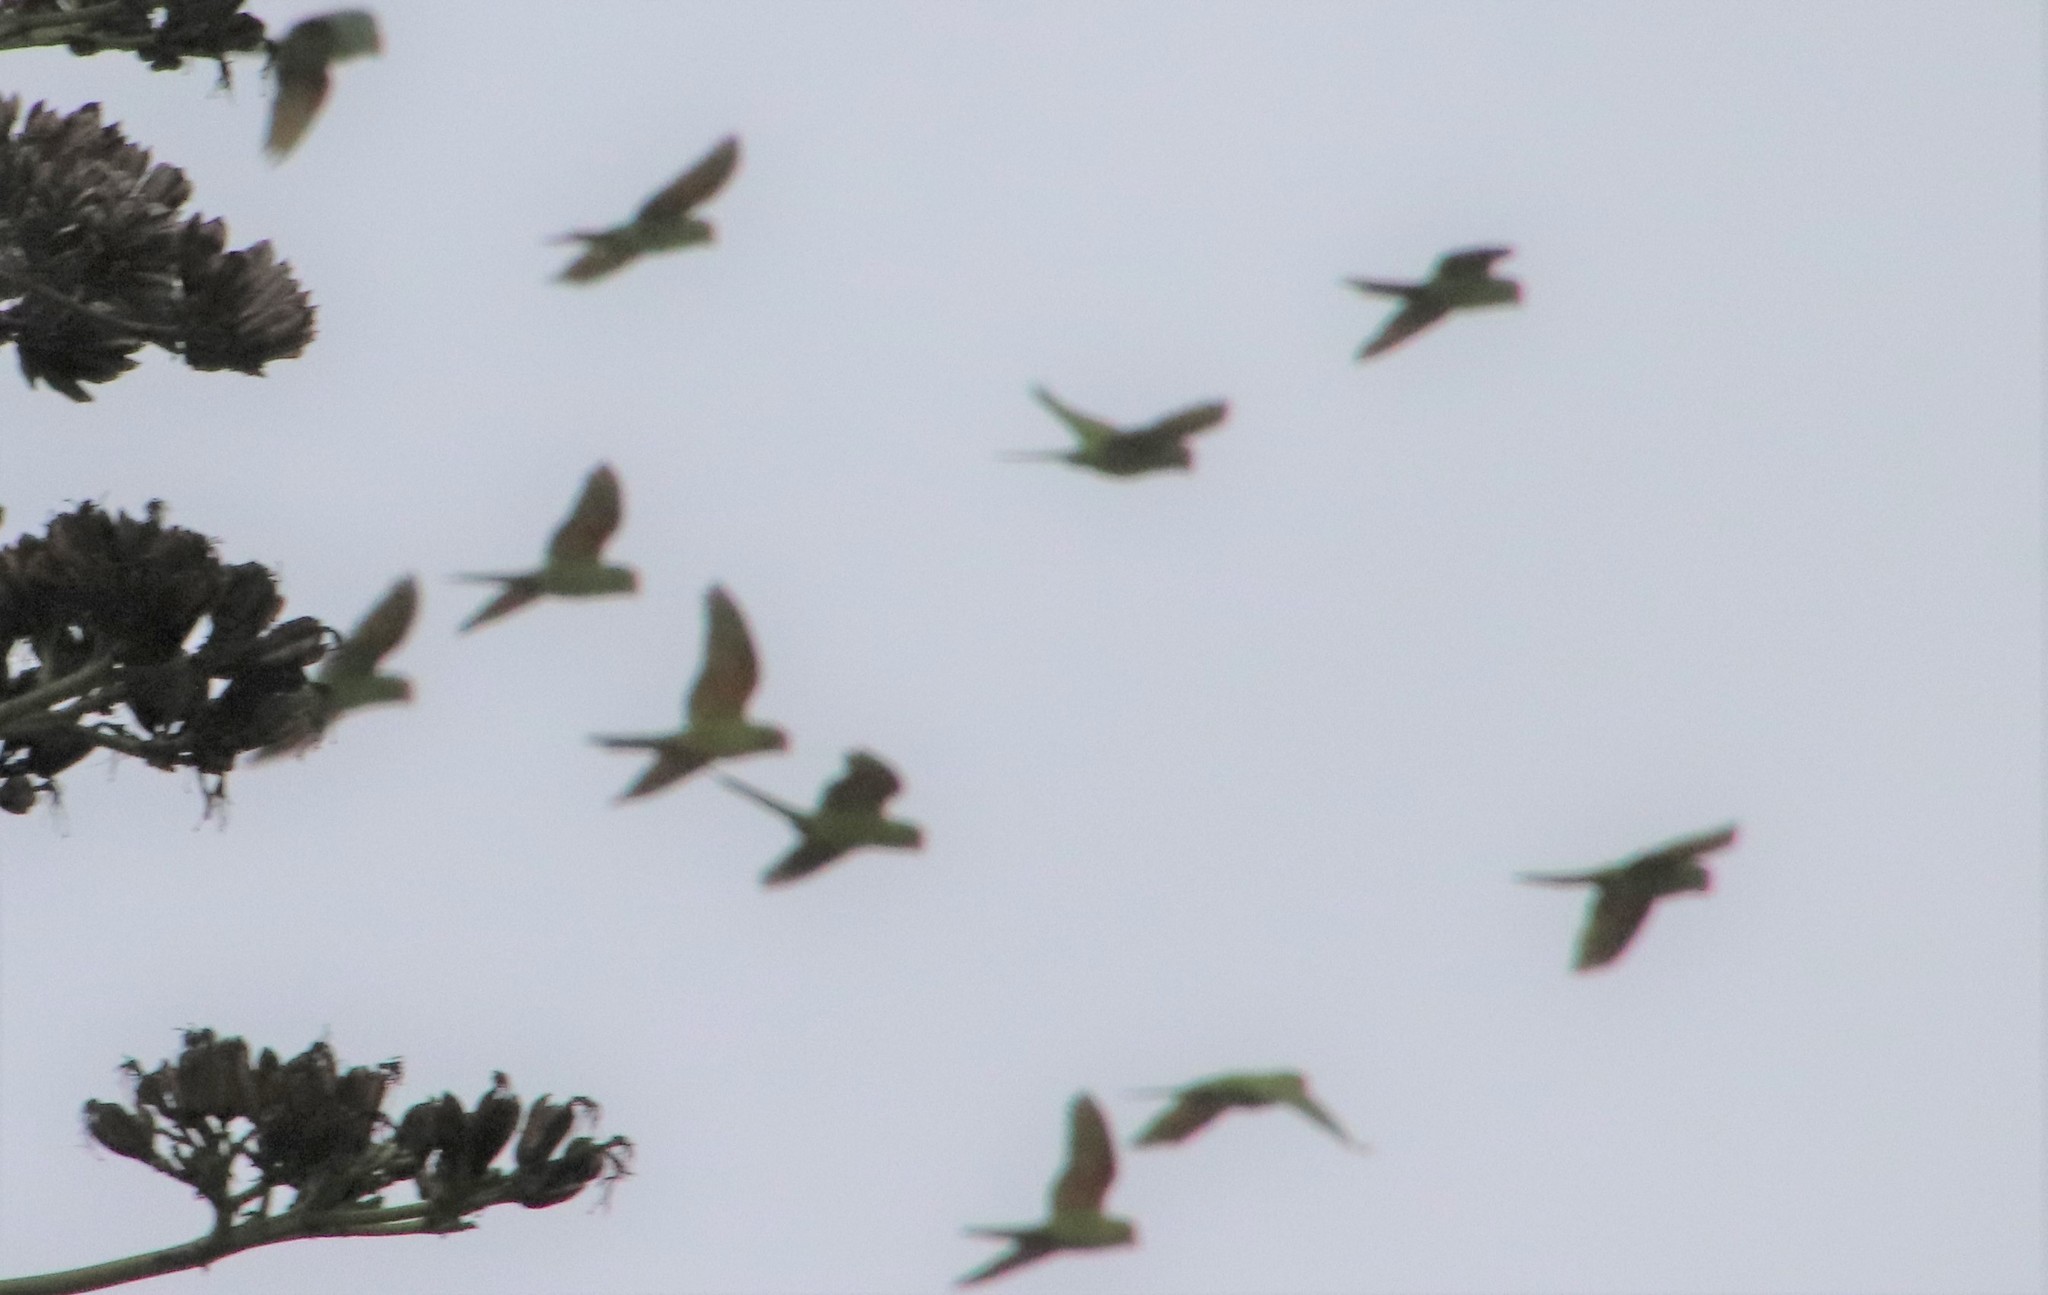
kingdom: Animalia
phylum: Chordata
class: Aves
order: Psittaciformes
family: Psittacidae
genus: Psittacara
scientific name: Psittacara
